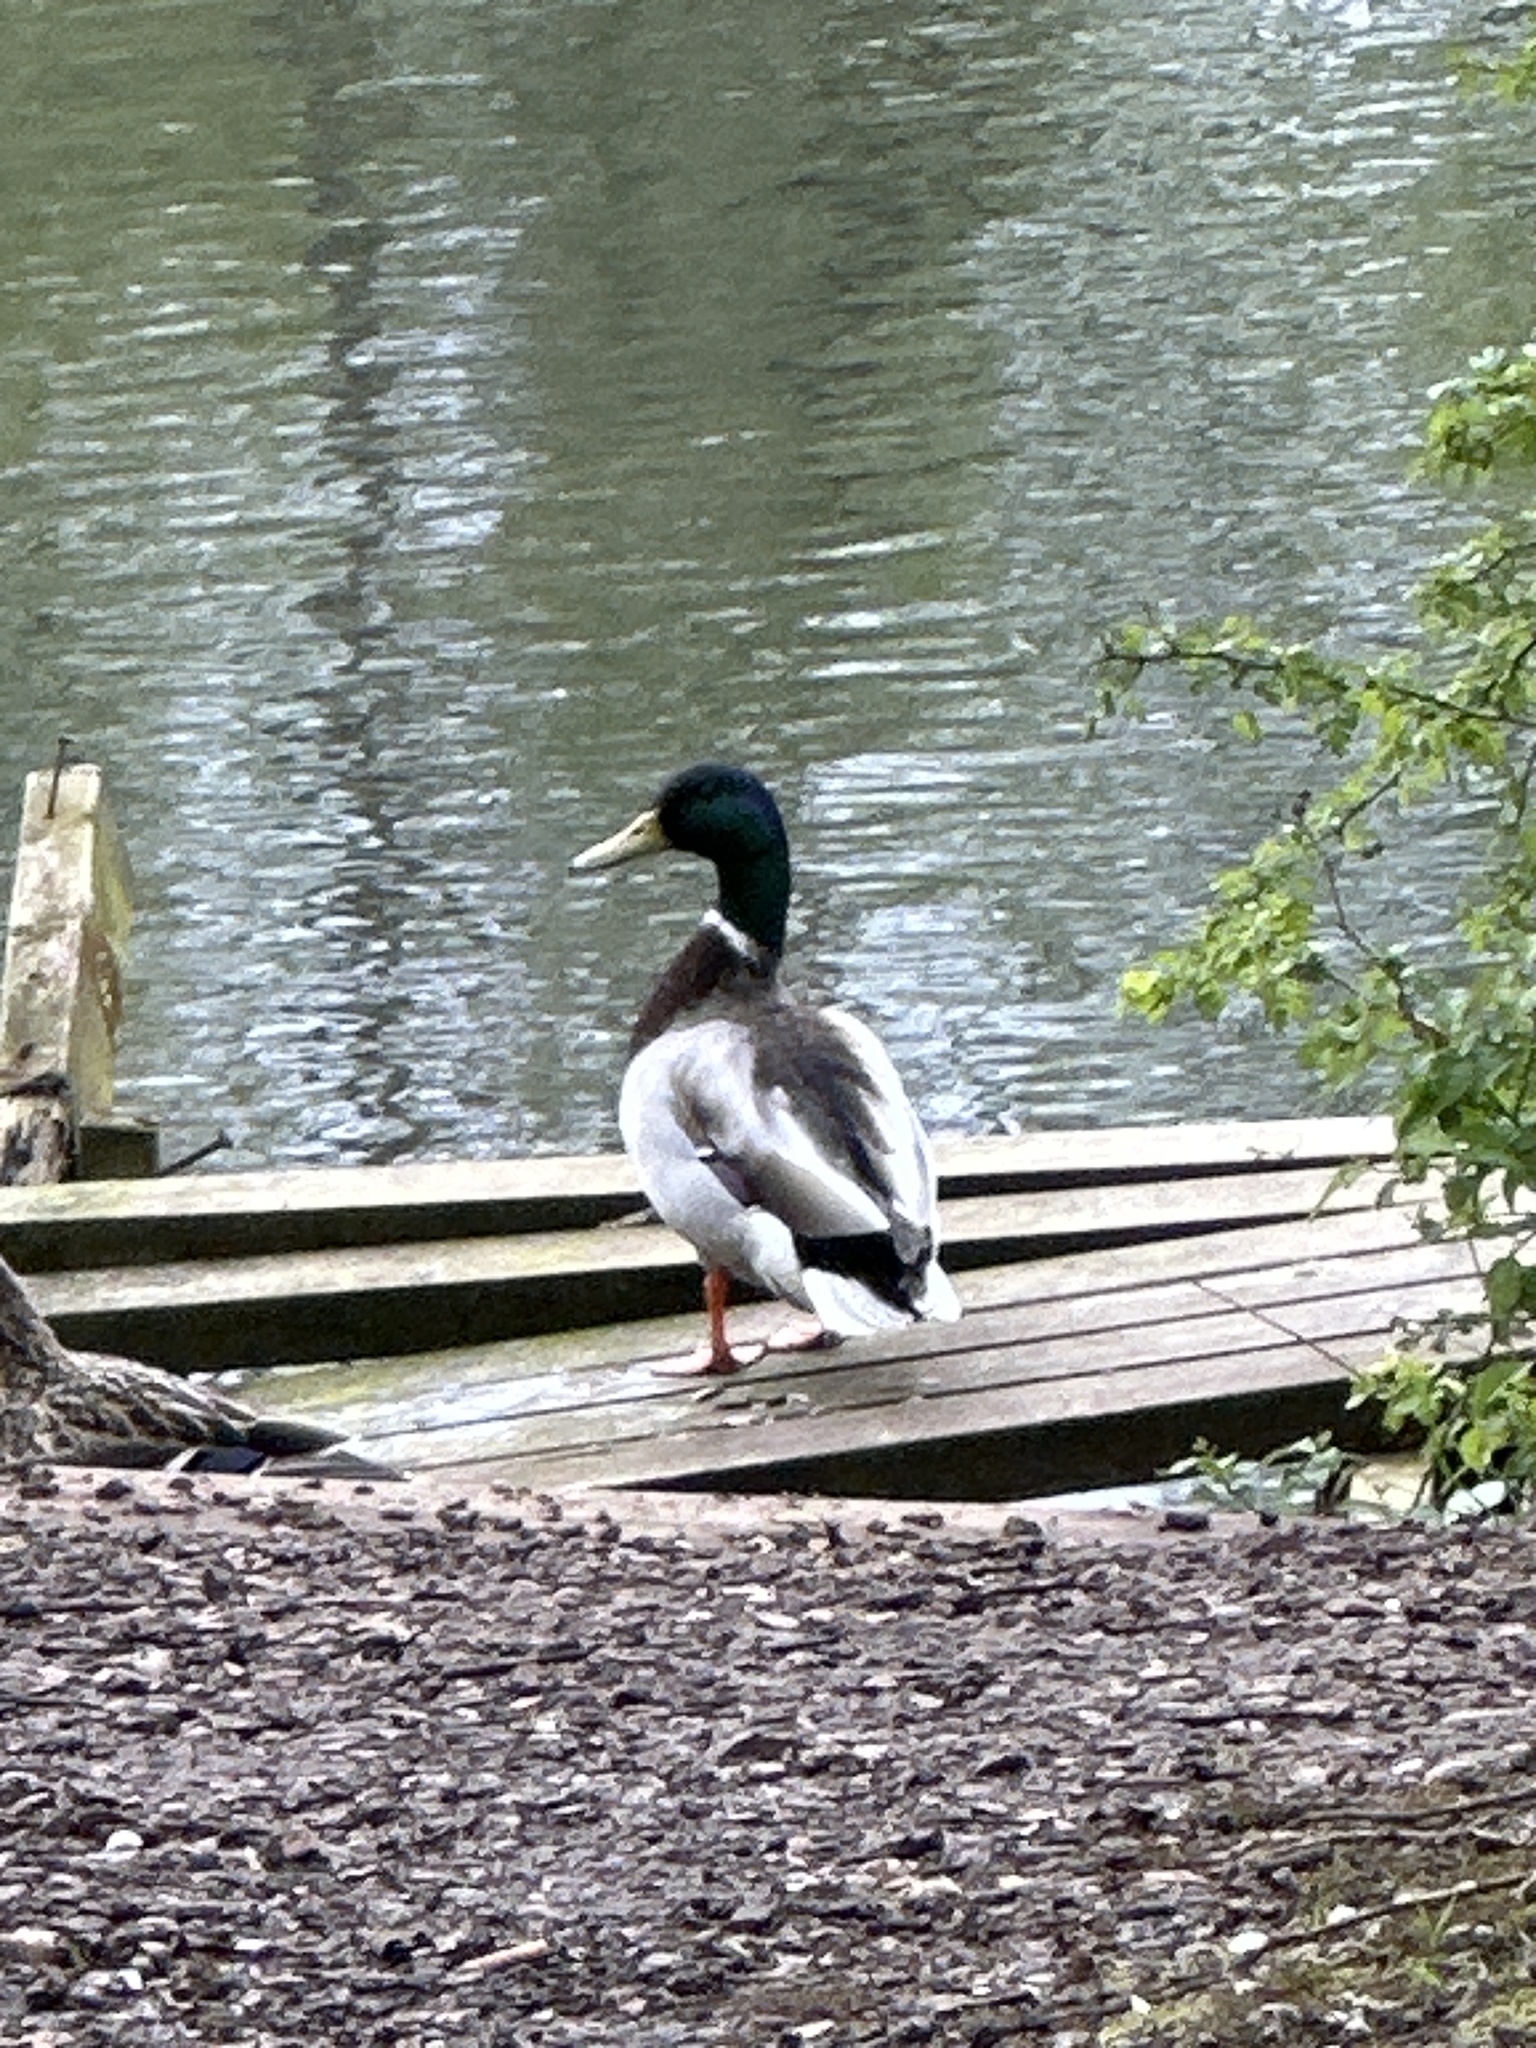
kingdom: Animalia
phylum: Chordata
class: Aves
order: Anseriformes
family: Anatidae
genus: Anas
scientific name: Anas platyrhynchos
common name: Mallard
